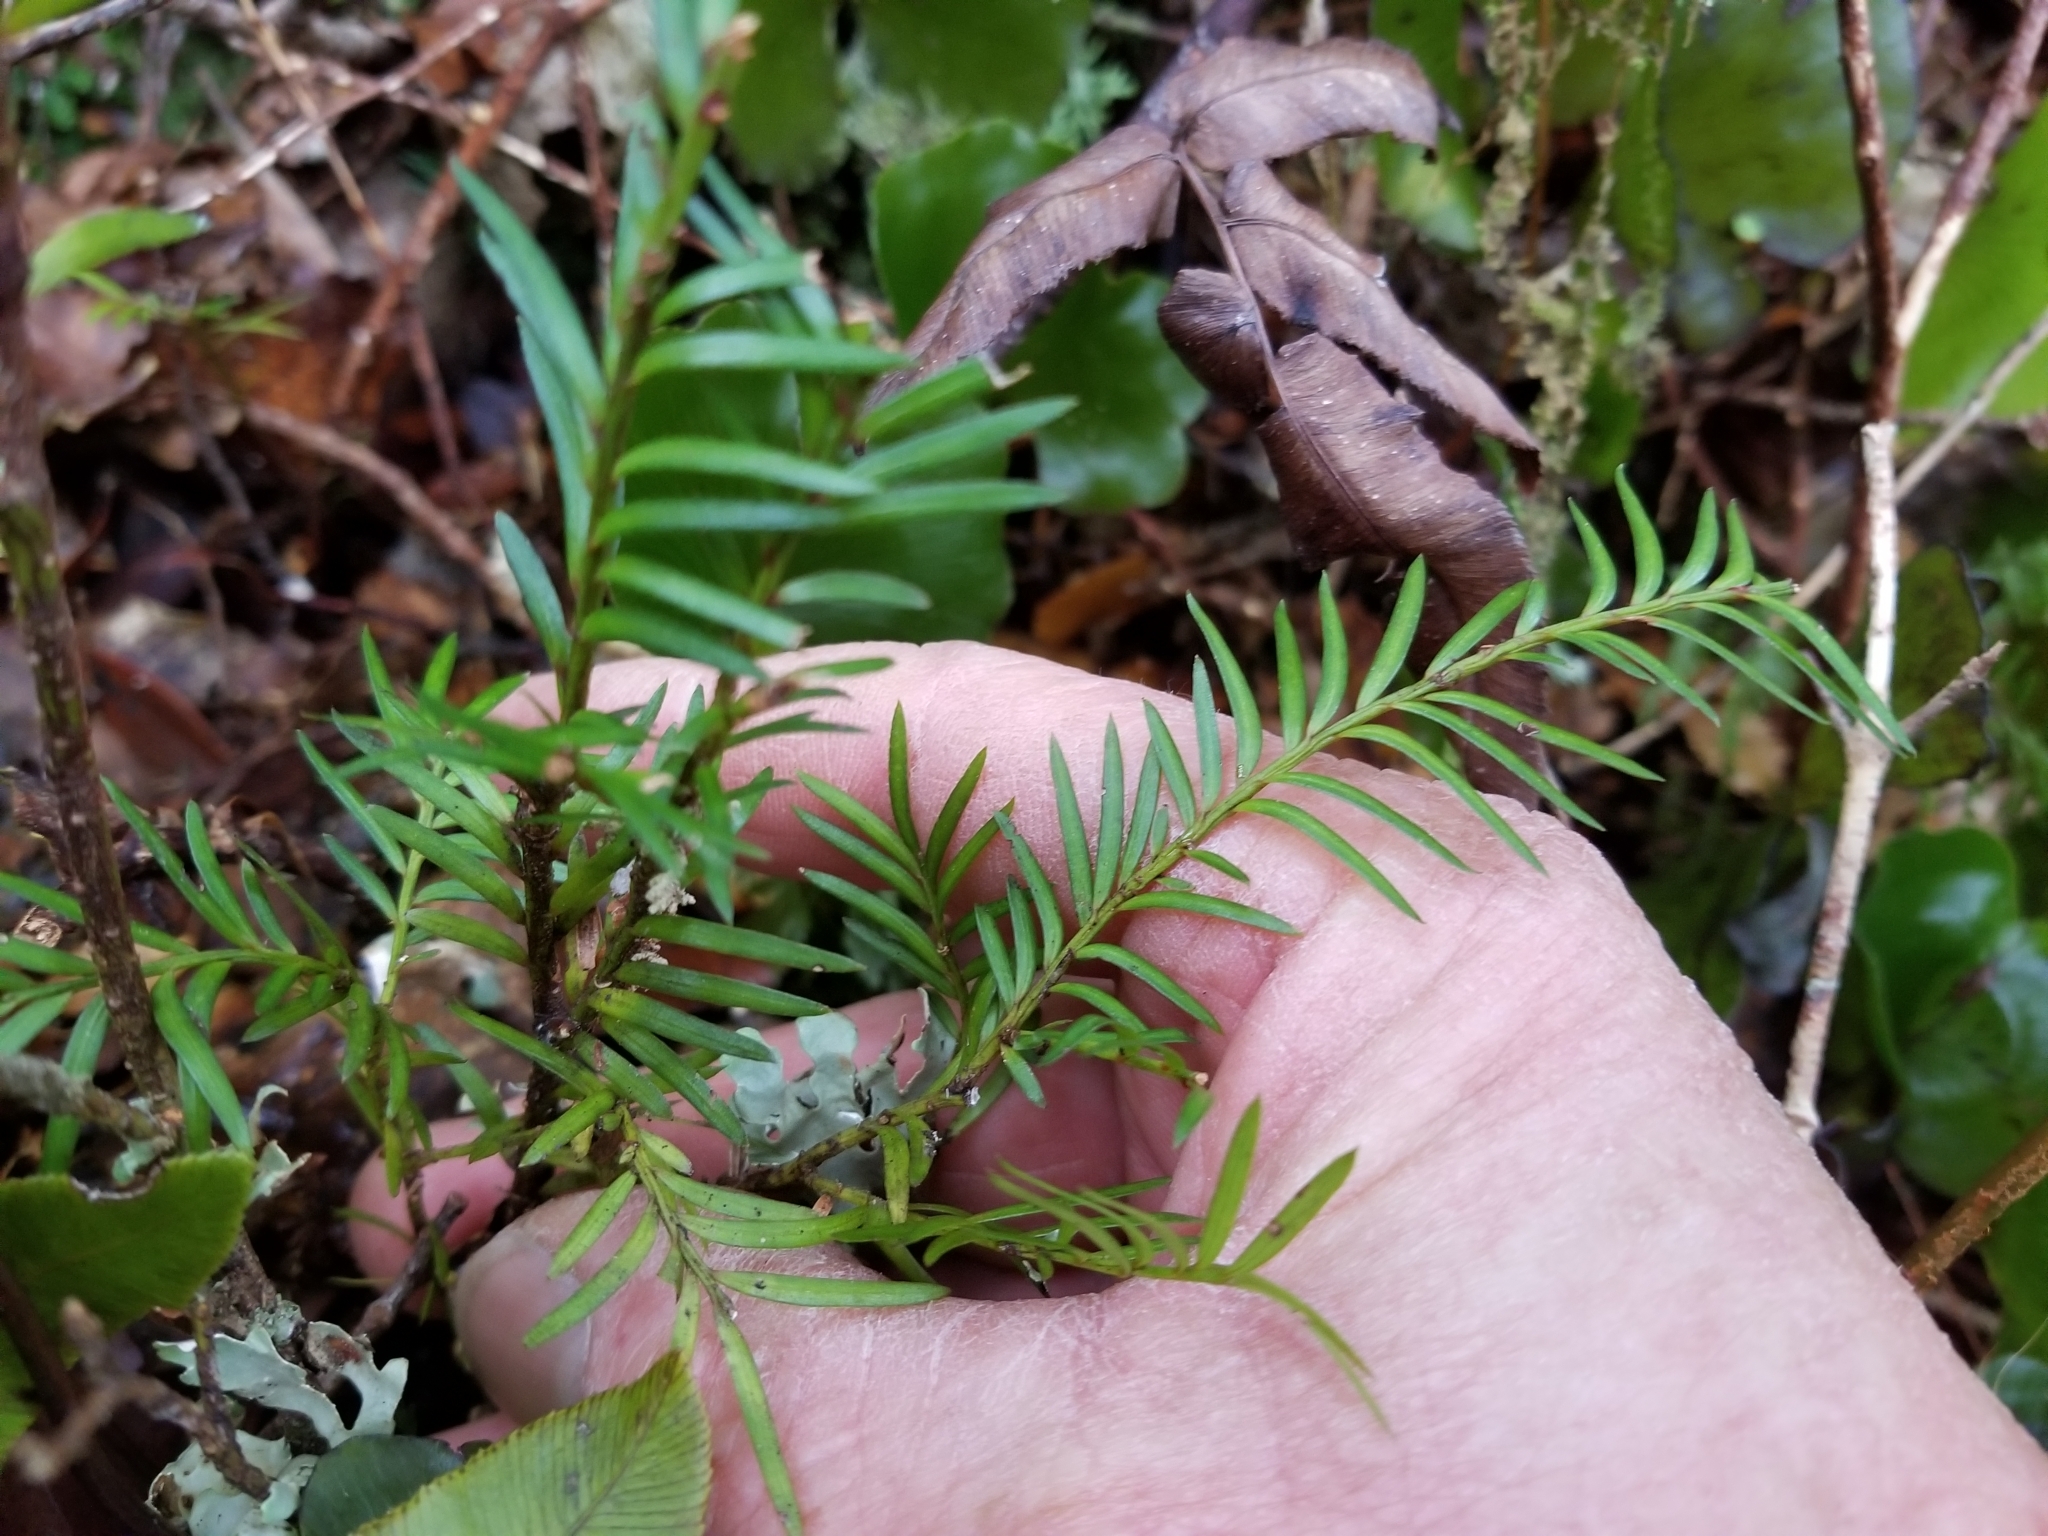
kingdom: Plantae
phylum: Tracheophyta
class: Pinopsida
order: Pinales
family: Podocarpaceae
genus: Prumnopitys
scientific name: Prumnopitys ferruginea
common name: Brown pine
